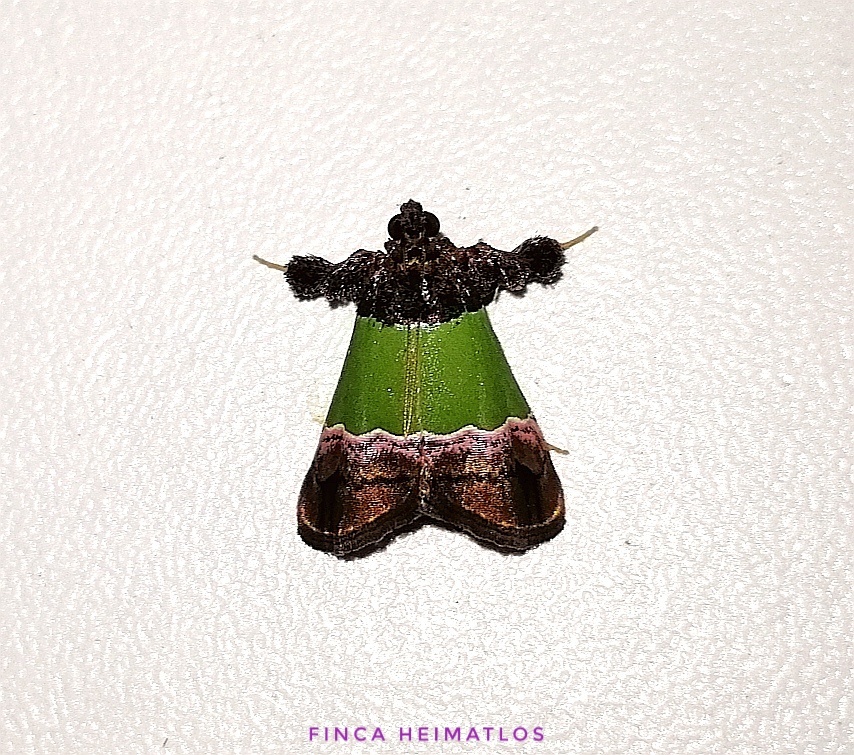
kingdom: Animalia
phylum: Arthropoda
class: Insecta
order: Lepidoptera
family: Pyralidae
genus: Epidelia
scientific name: Epidelia damia
